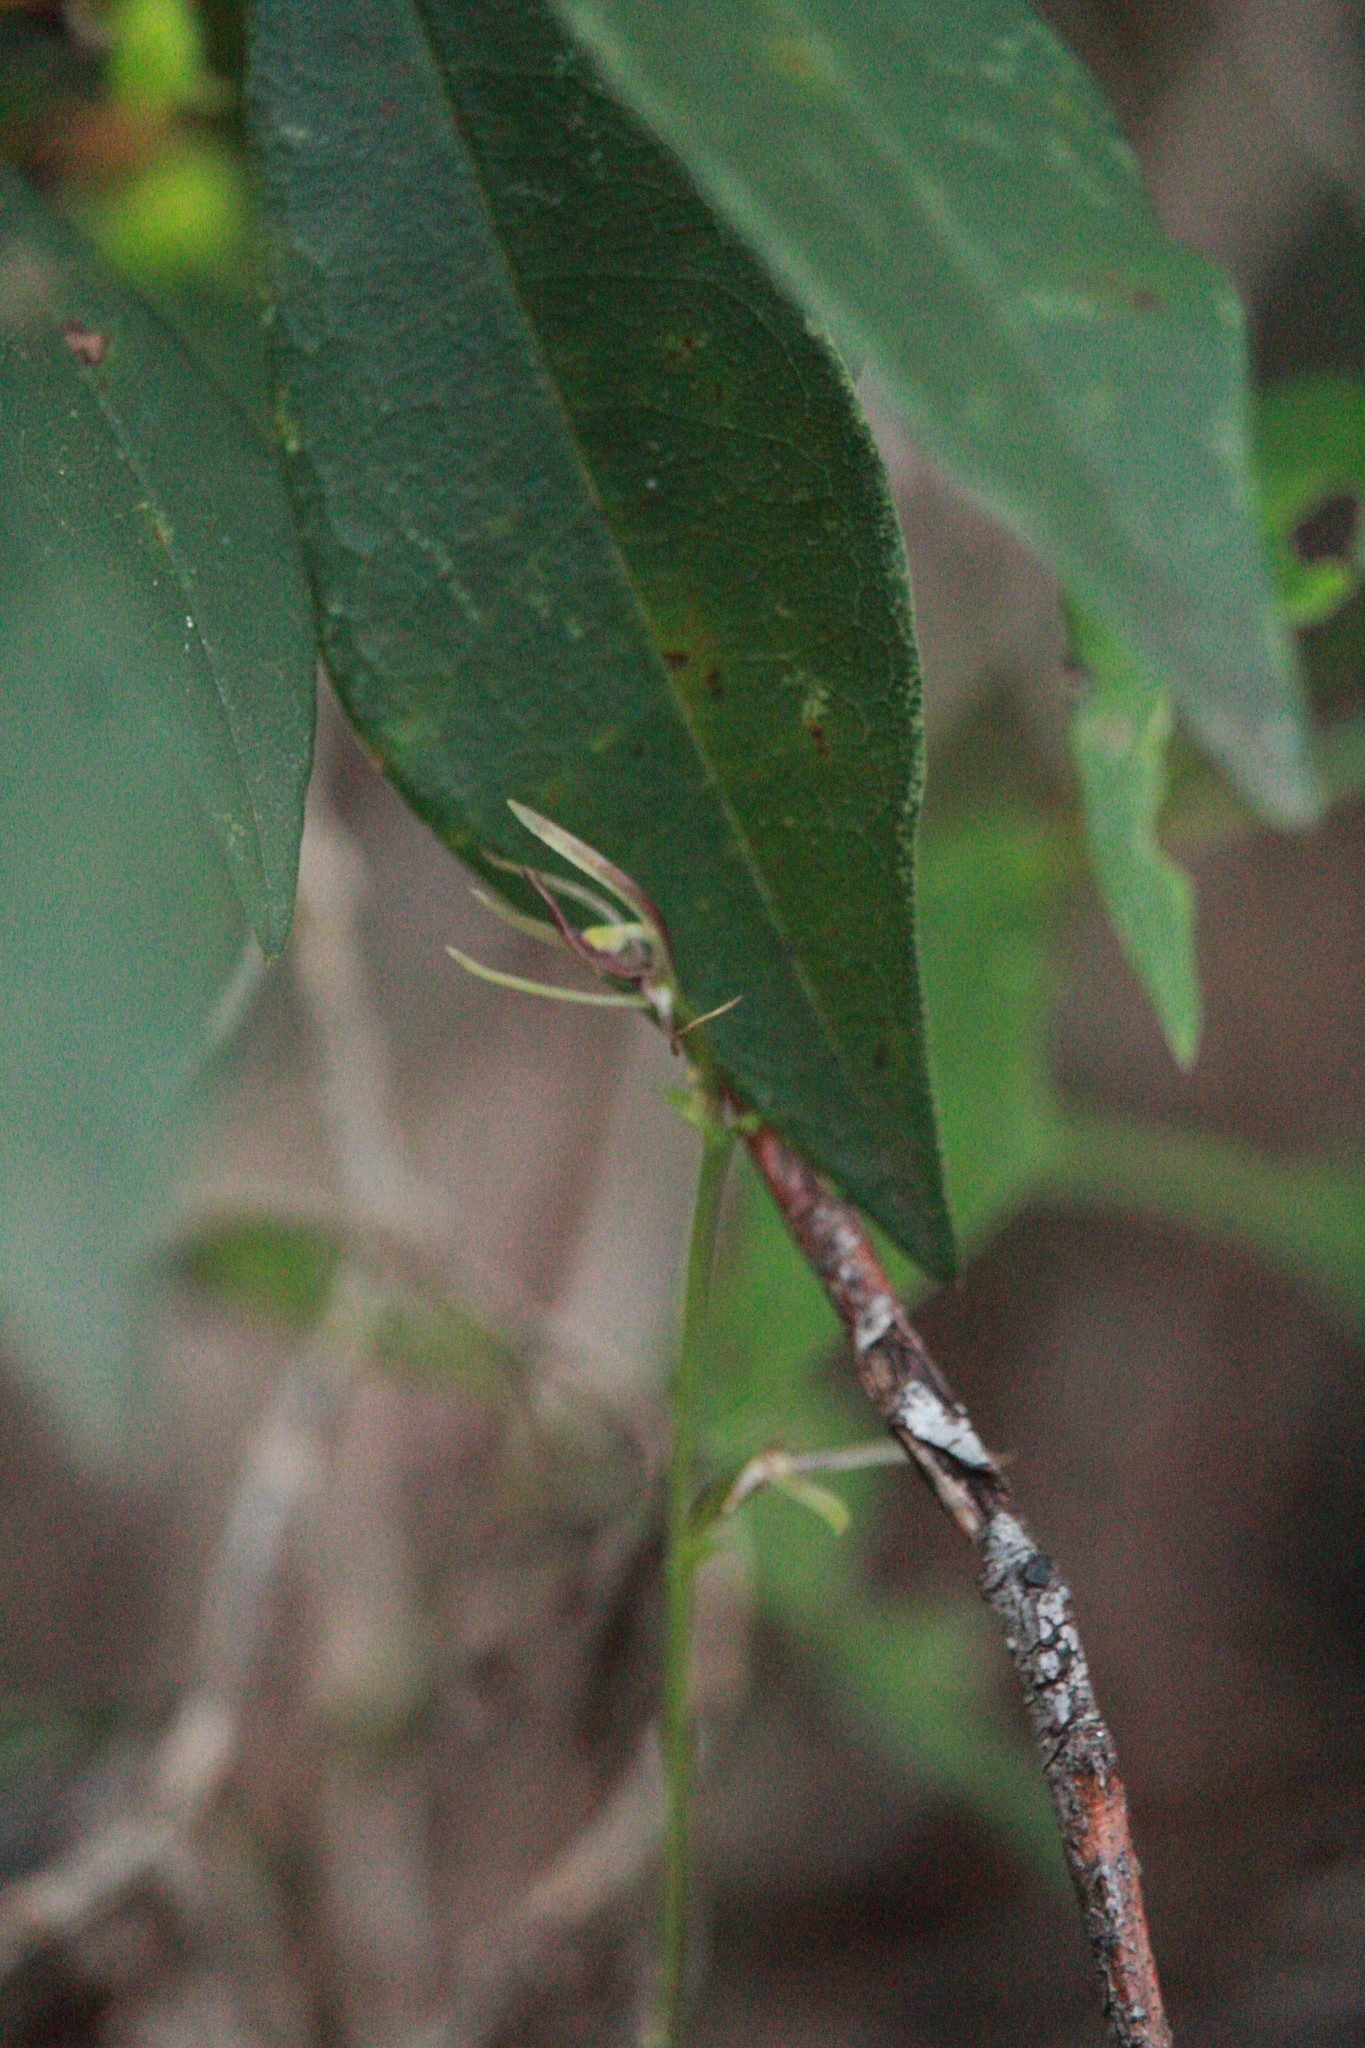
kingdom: Plantae
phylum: Tracheophyta
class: Liliopsida
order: Asparagales
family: Orchidaceae
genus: Cyrtostylis
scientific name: Cyrtostylis huegelii
